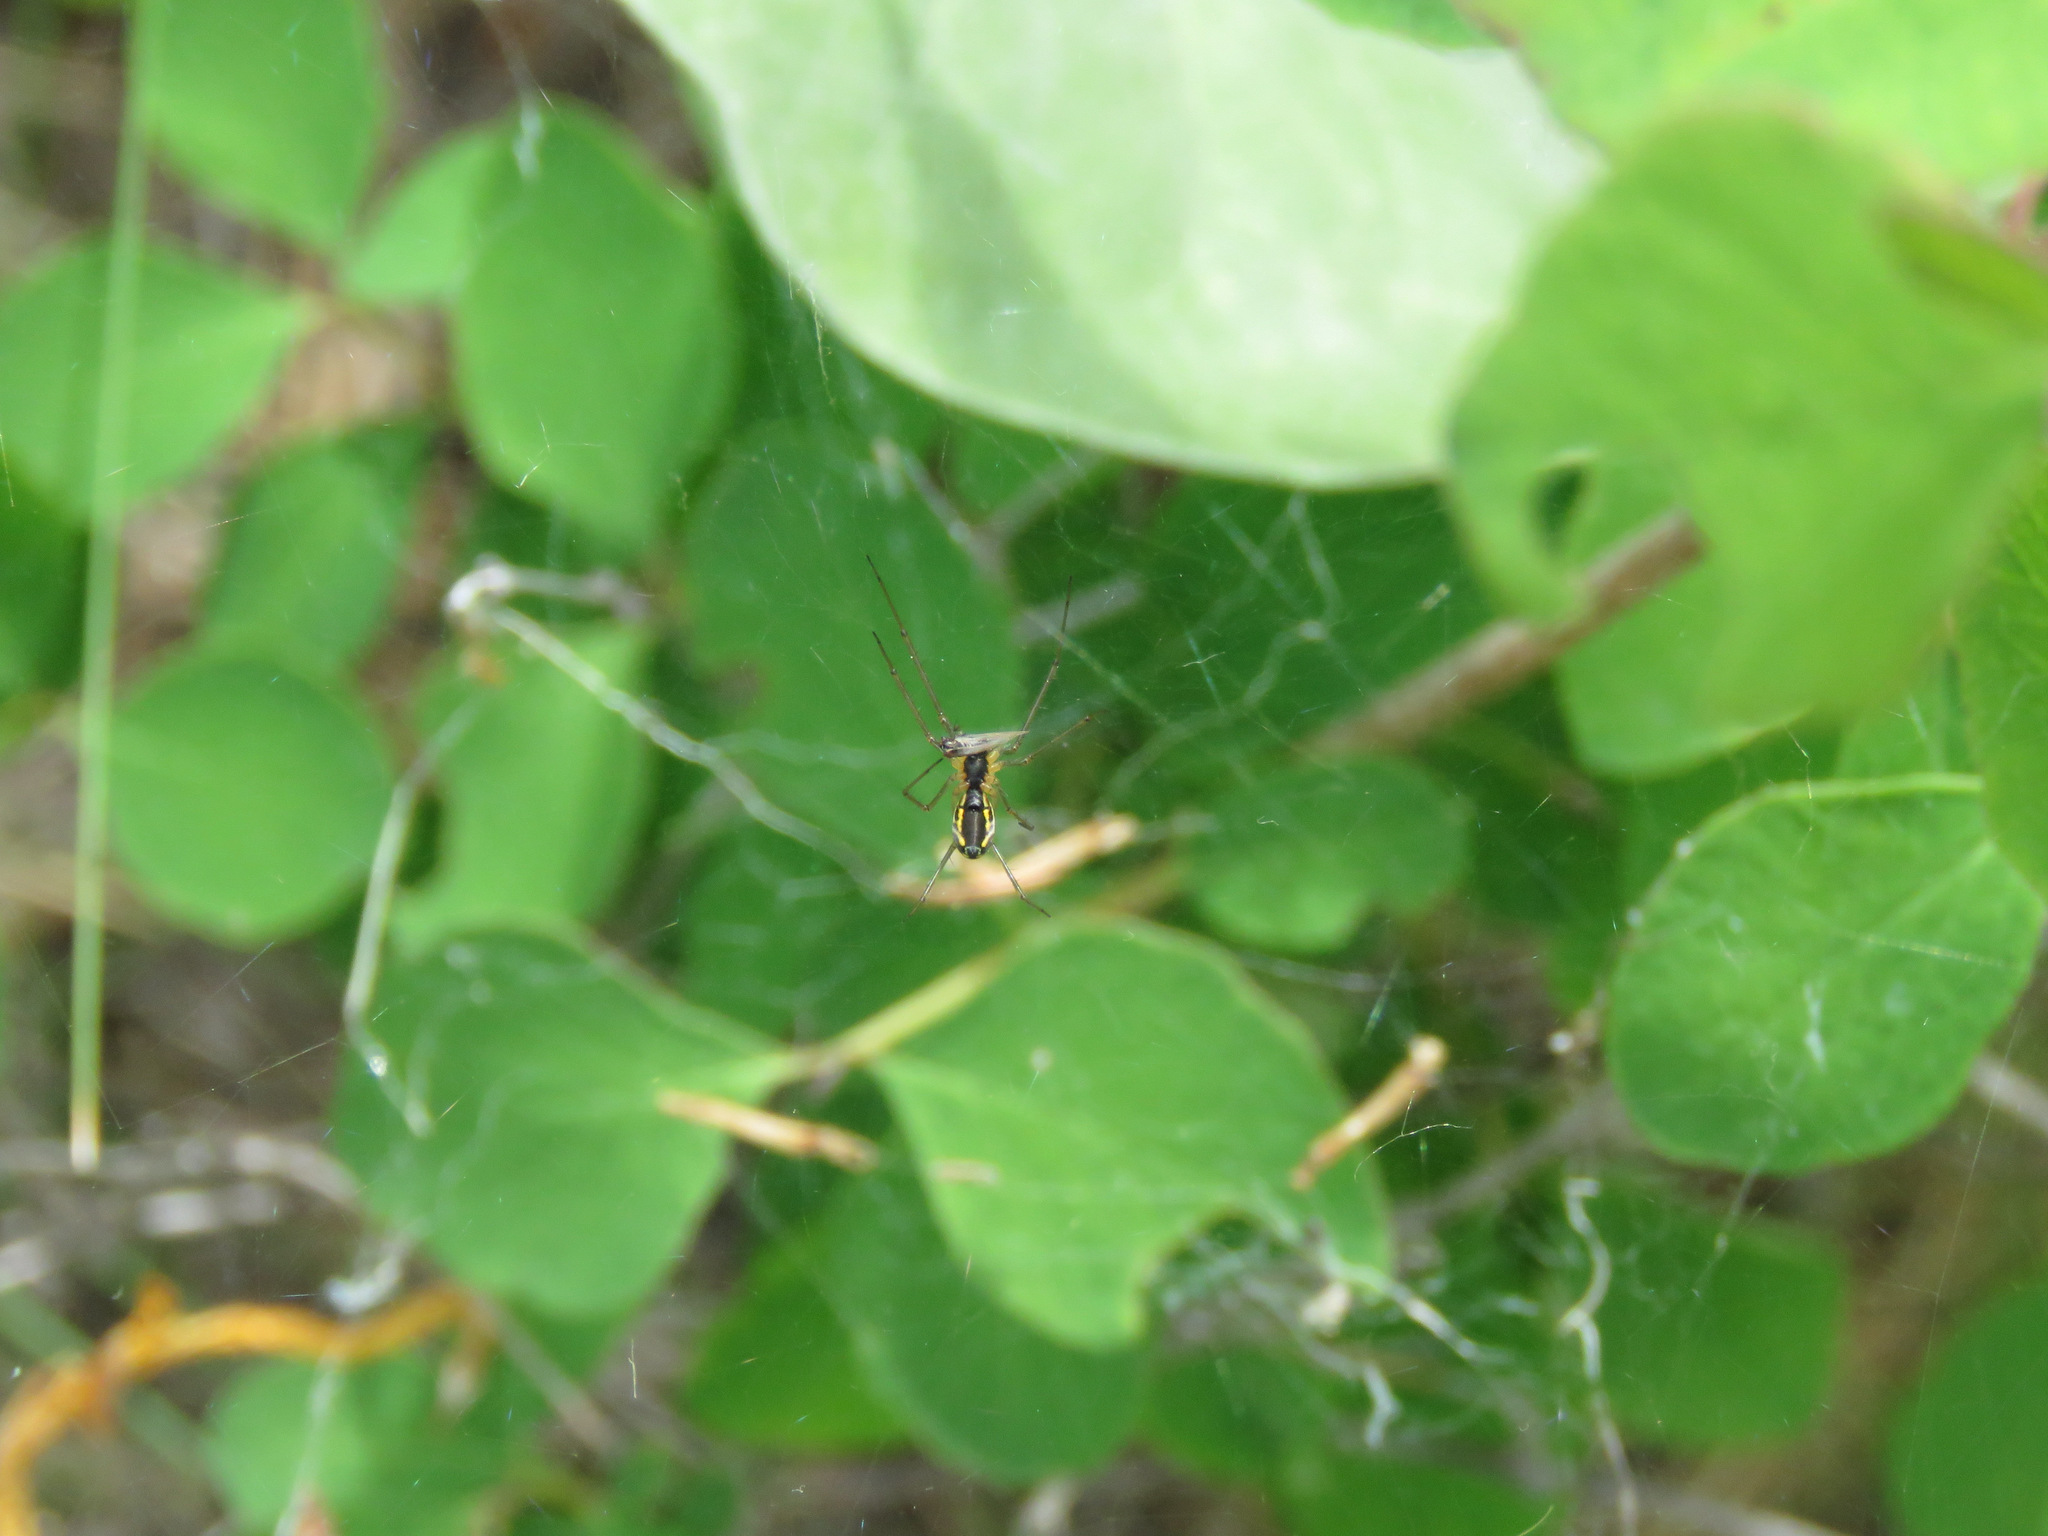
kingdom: Animalia
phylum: Arthropoda
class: Arachnida
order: Araneae
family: Linyphiidae
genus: Neriene
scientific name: Neriene radiata
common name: Filmy dome spider
